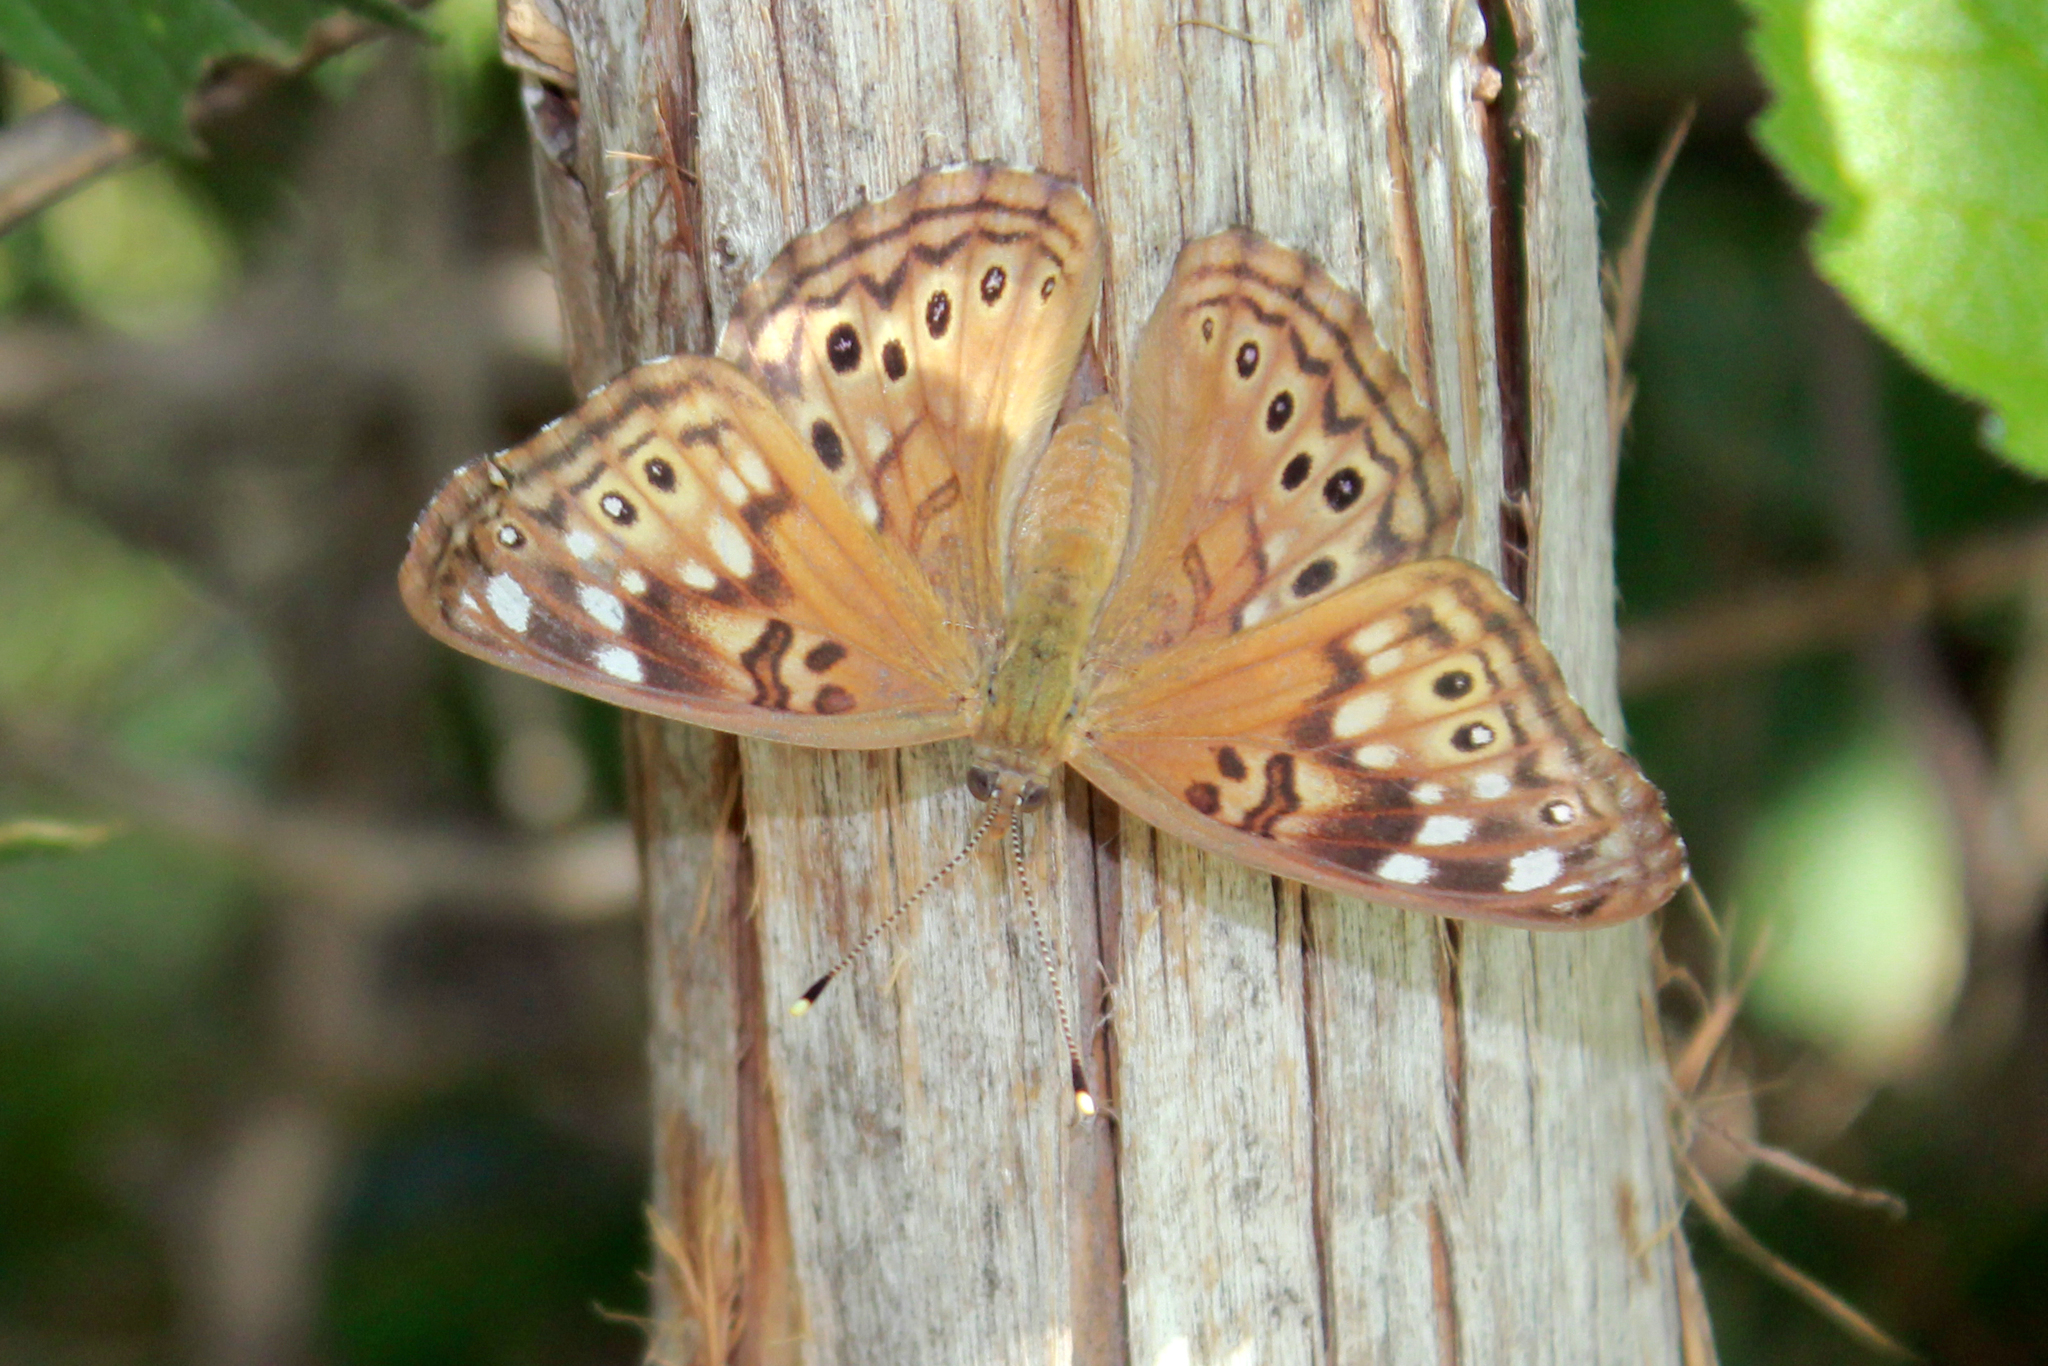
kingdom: Animalia
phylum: Arthropoda
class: Insecta
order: Lepidoptera
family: Nymphalidae
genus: Asterocampa
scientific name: Asterocampa celtis
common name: Hackberry emperor
